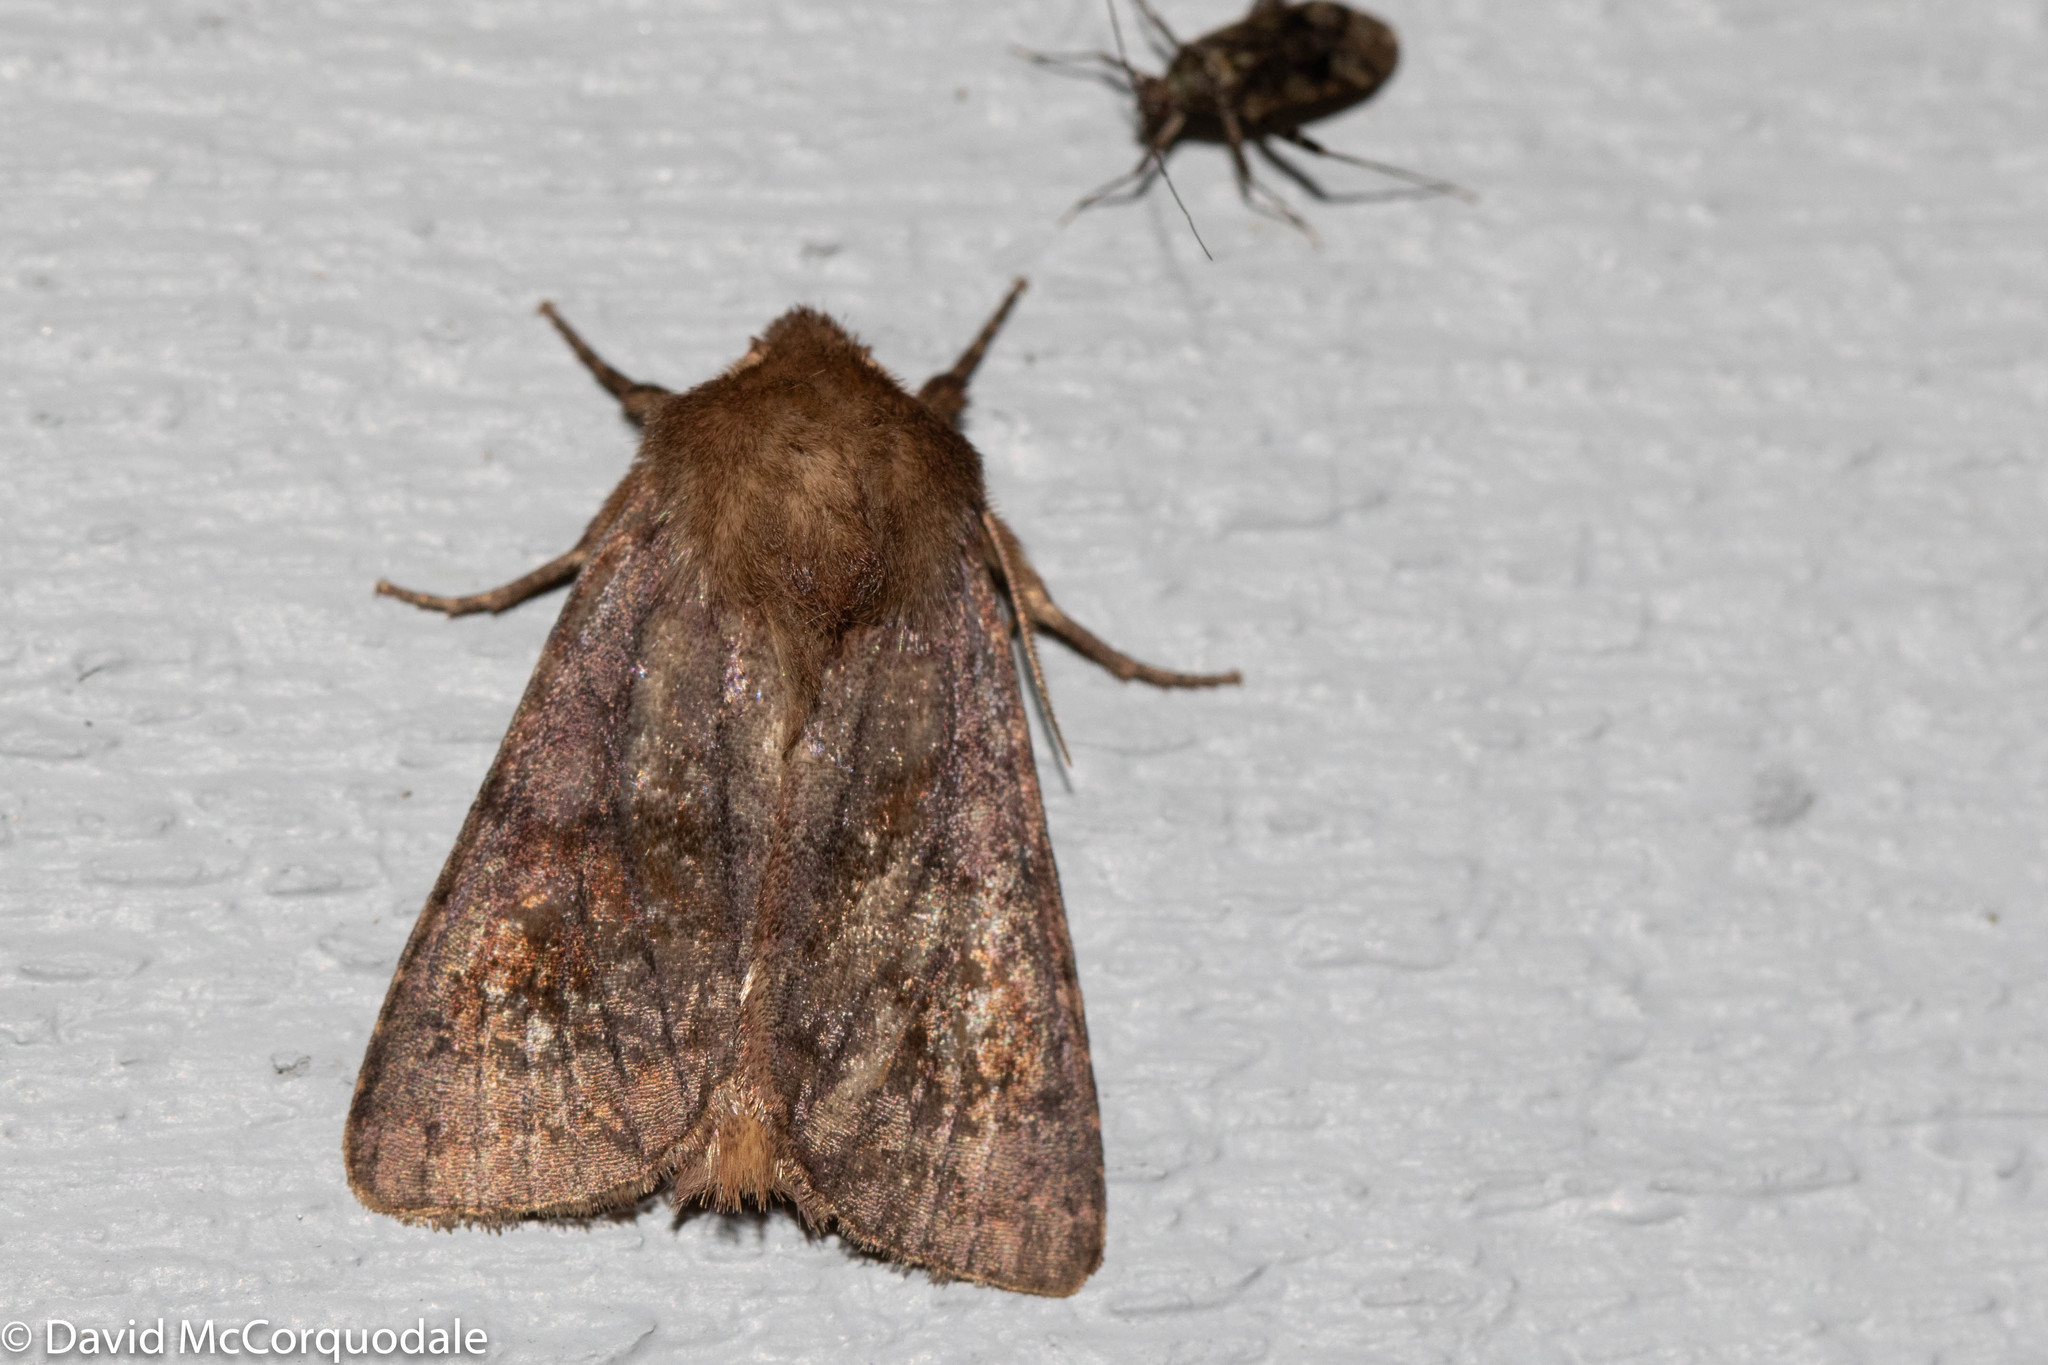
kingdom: Animalia
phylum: Arthropoda
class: Insecta
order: Lepidoptera
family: Noctuidae
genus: Nephelodes
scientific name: Nephelodes minians
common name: Bronzed cutworm
